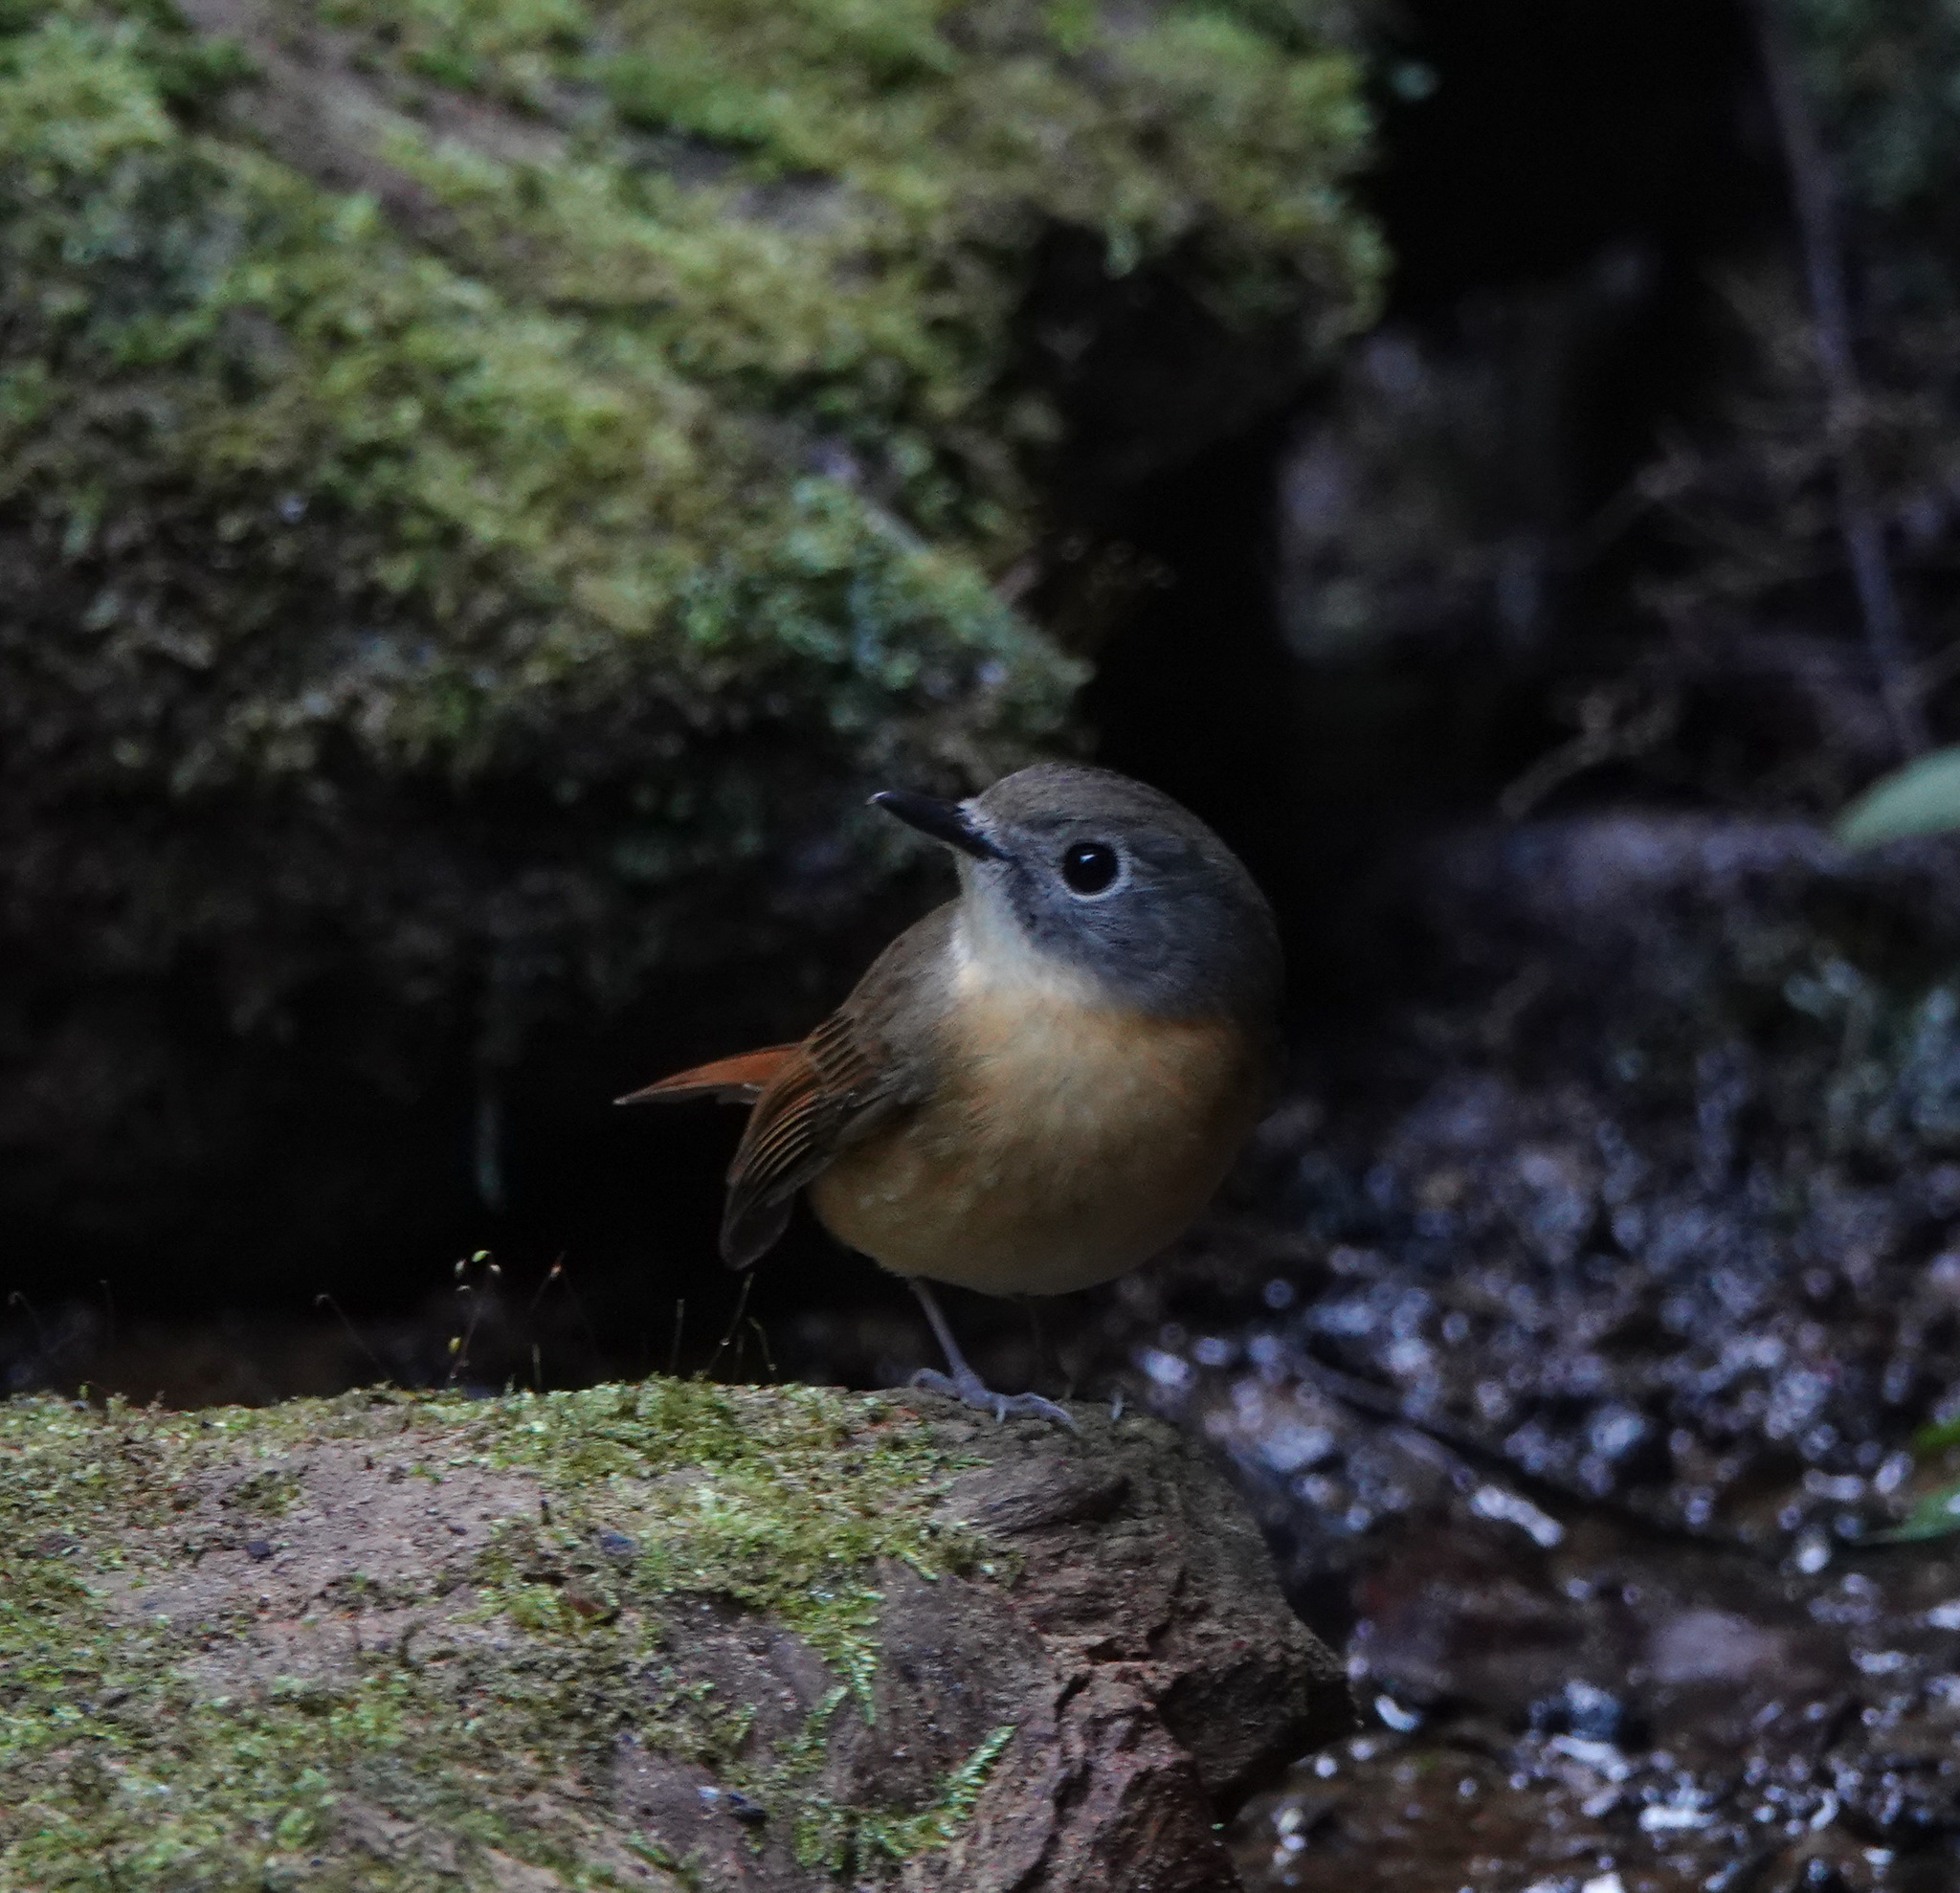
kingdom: Animalia
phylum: Chordata
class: Aves
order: Passeriformes
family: Muscicapidae
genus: Cyornis
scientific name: Cyornis poliogenys
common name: Pale-chinned blue flycatcher
